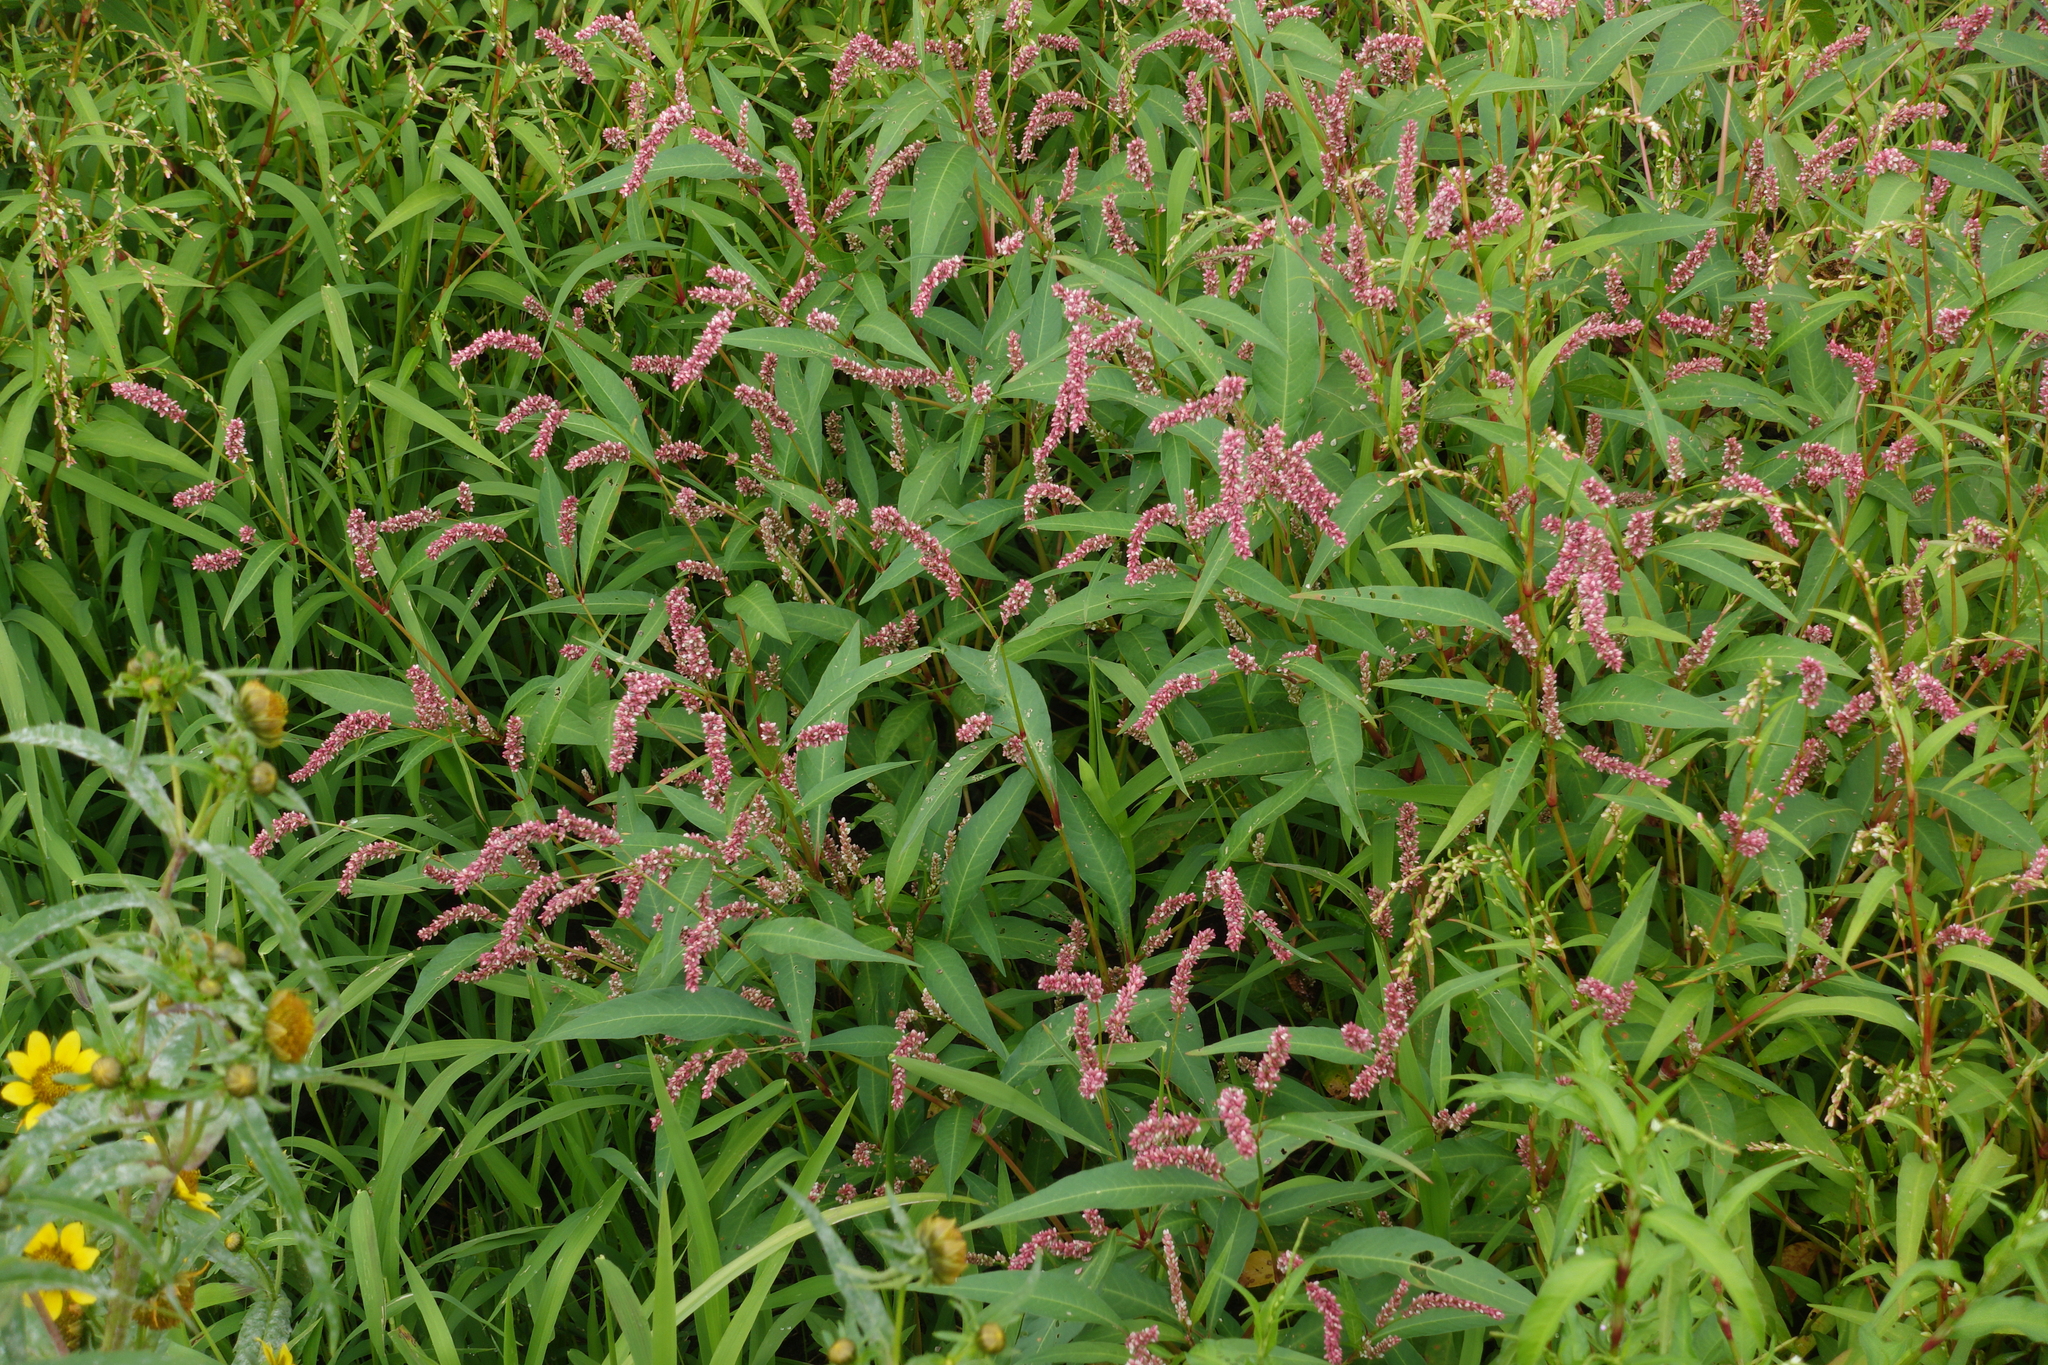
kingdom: Plantae
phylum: Tracheophyta
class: Magnoliopsida
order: Caryophyllales
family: Polygonaceae
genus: Persicaria
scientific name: Persicaria lapathifolia
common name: Curlytop knotweed
